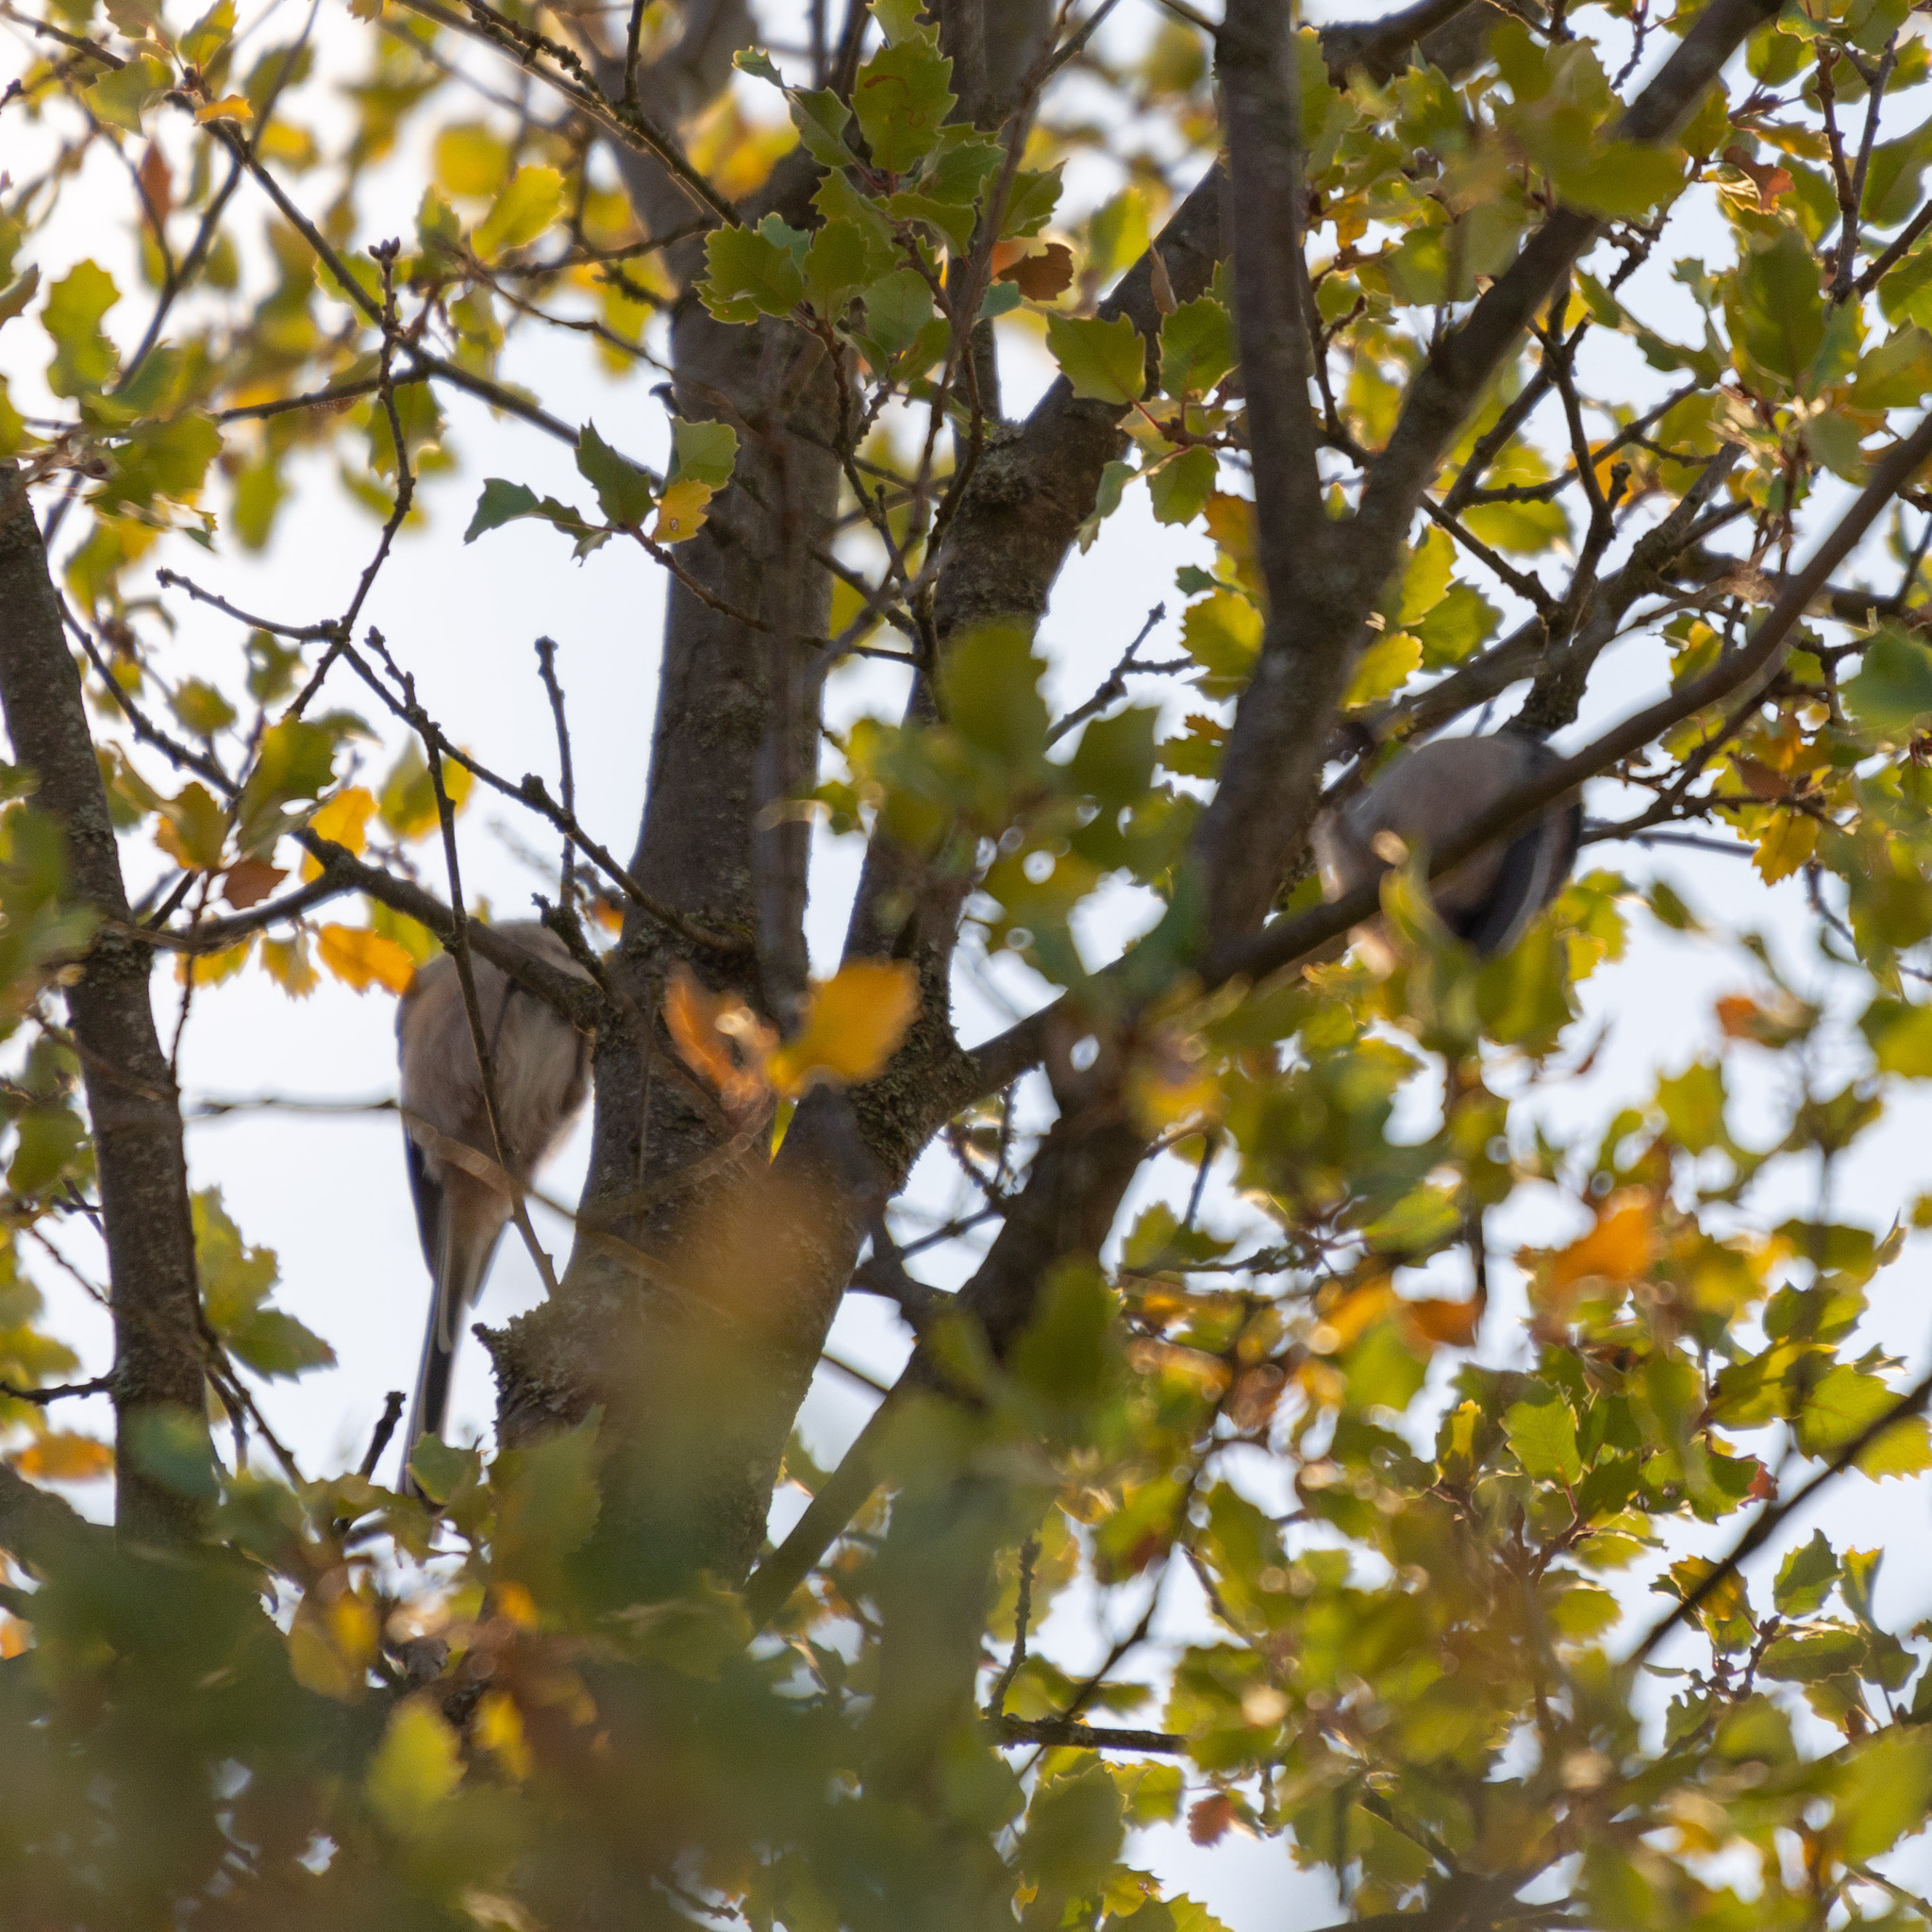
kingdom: Animalia
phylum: Chordata
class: Aves
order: Passeriformes
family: Aegithalidae
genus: Aegithalos
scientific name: Aegithalos caudatus
